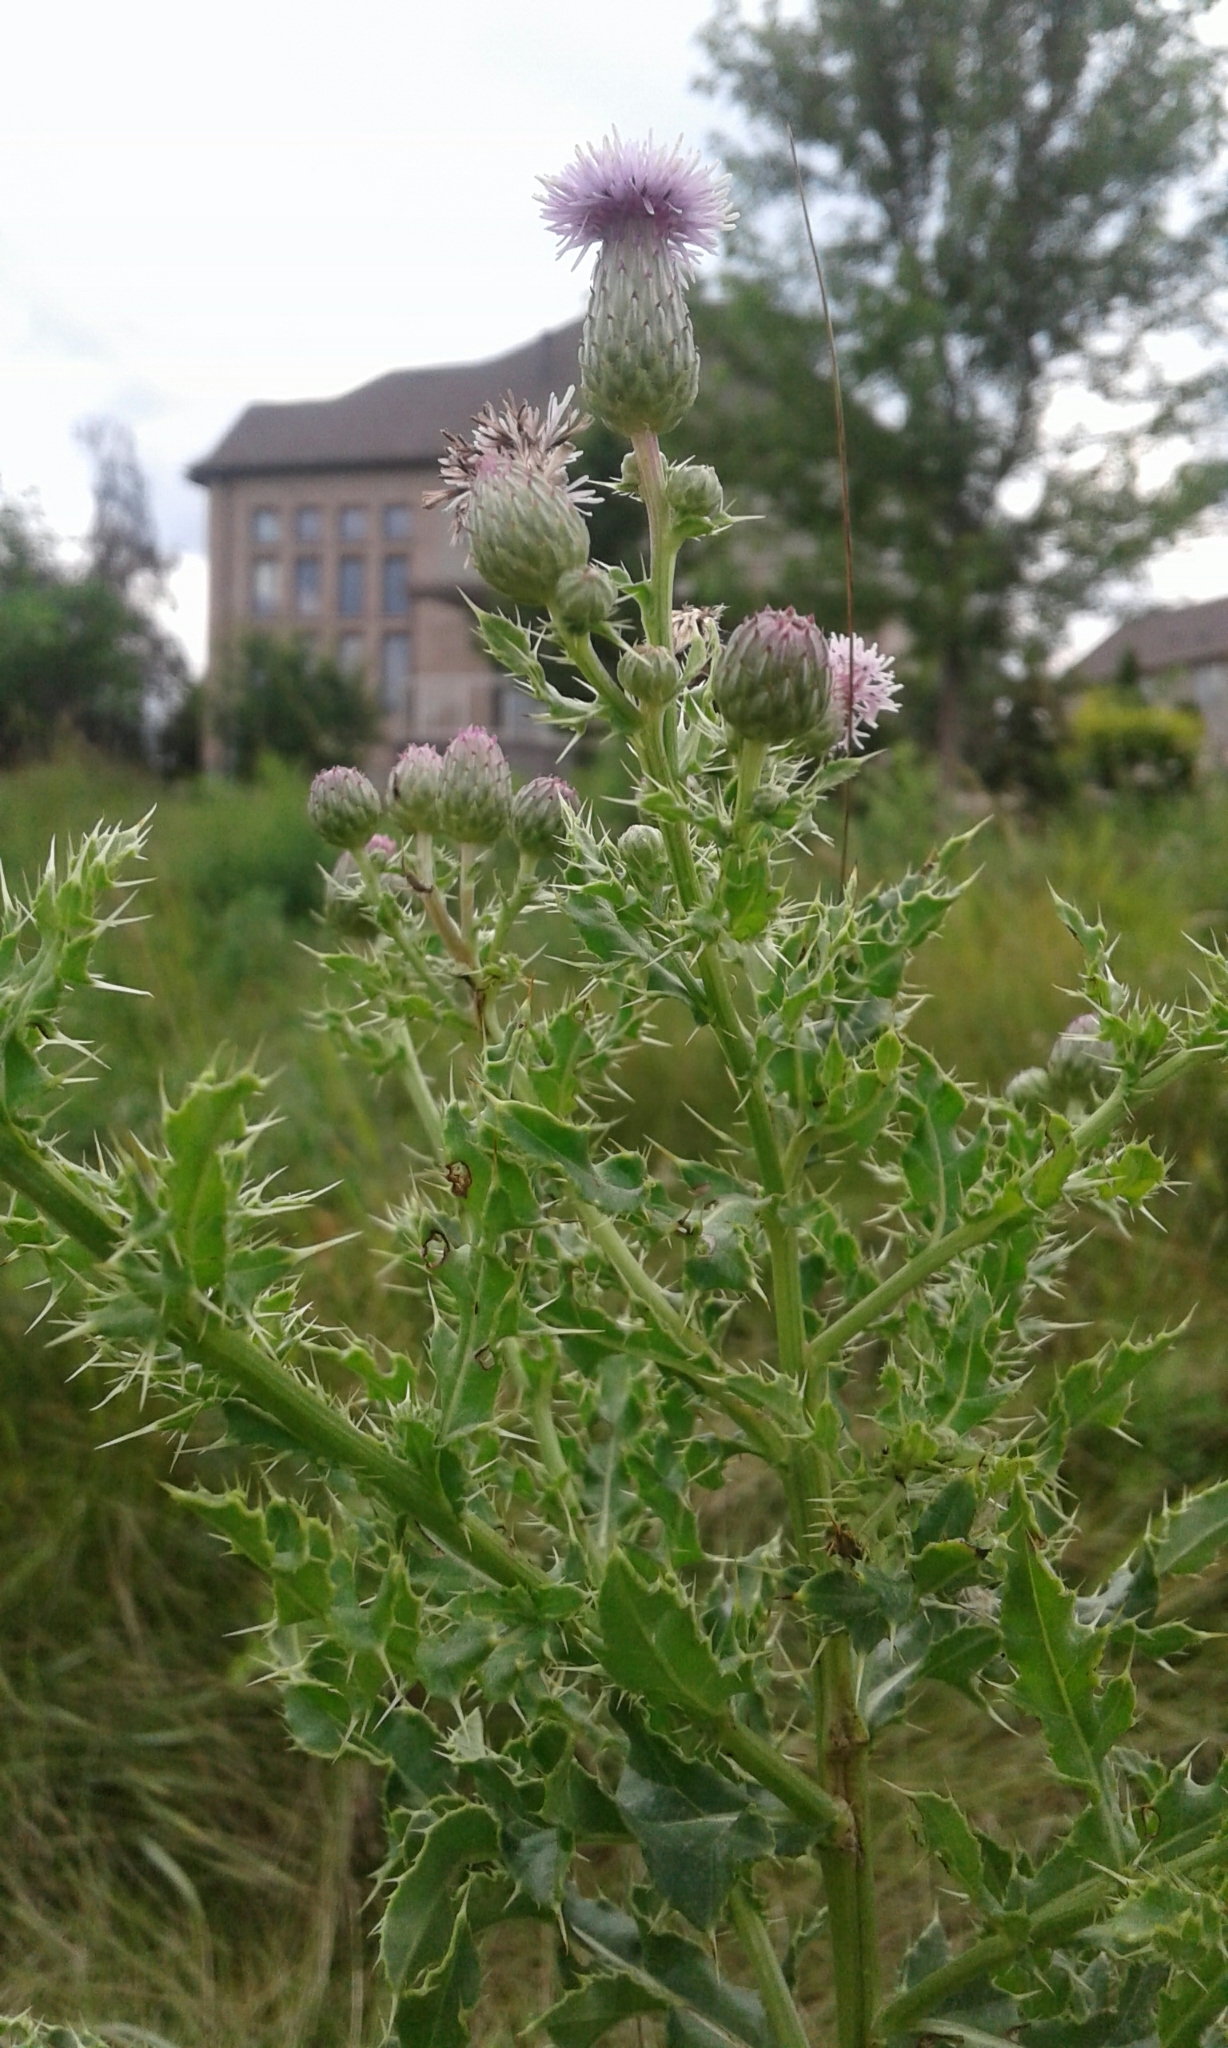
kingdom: Plantae
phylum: Tracheophyta
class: Magnoliopsida
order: Asterales
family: Asteraceae
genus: Cirsium
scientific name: Cirsium arvense
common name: Creeping thistle
